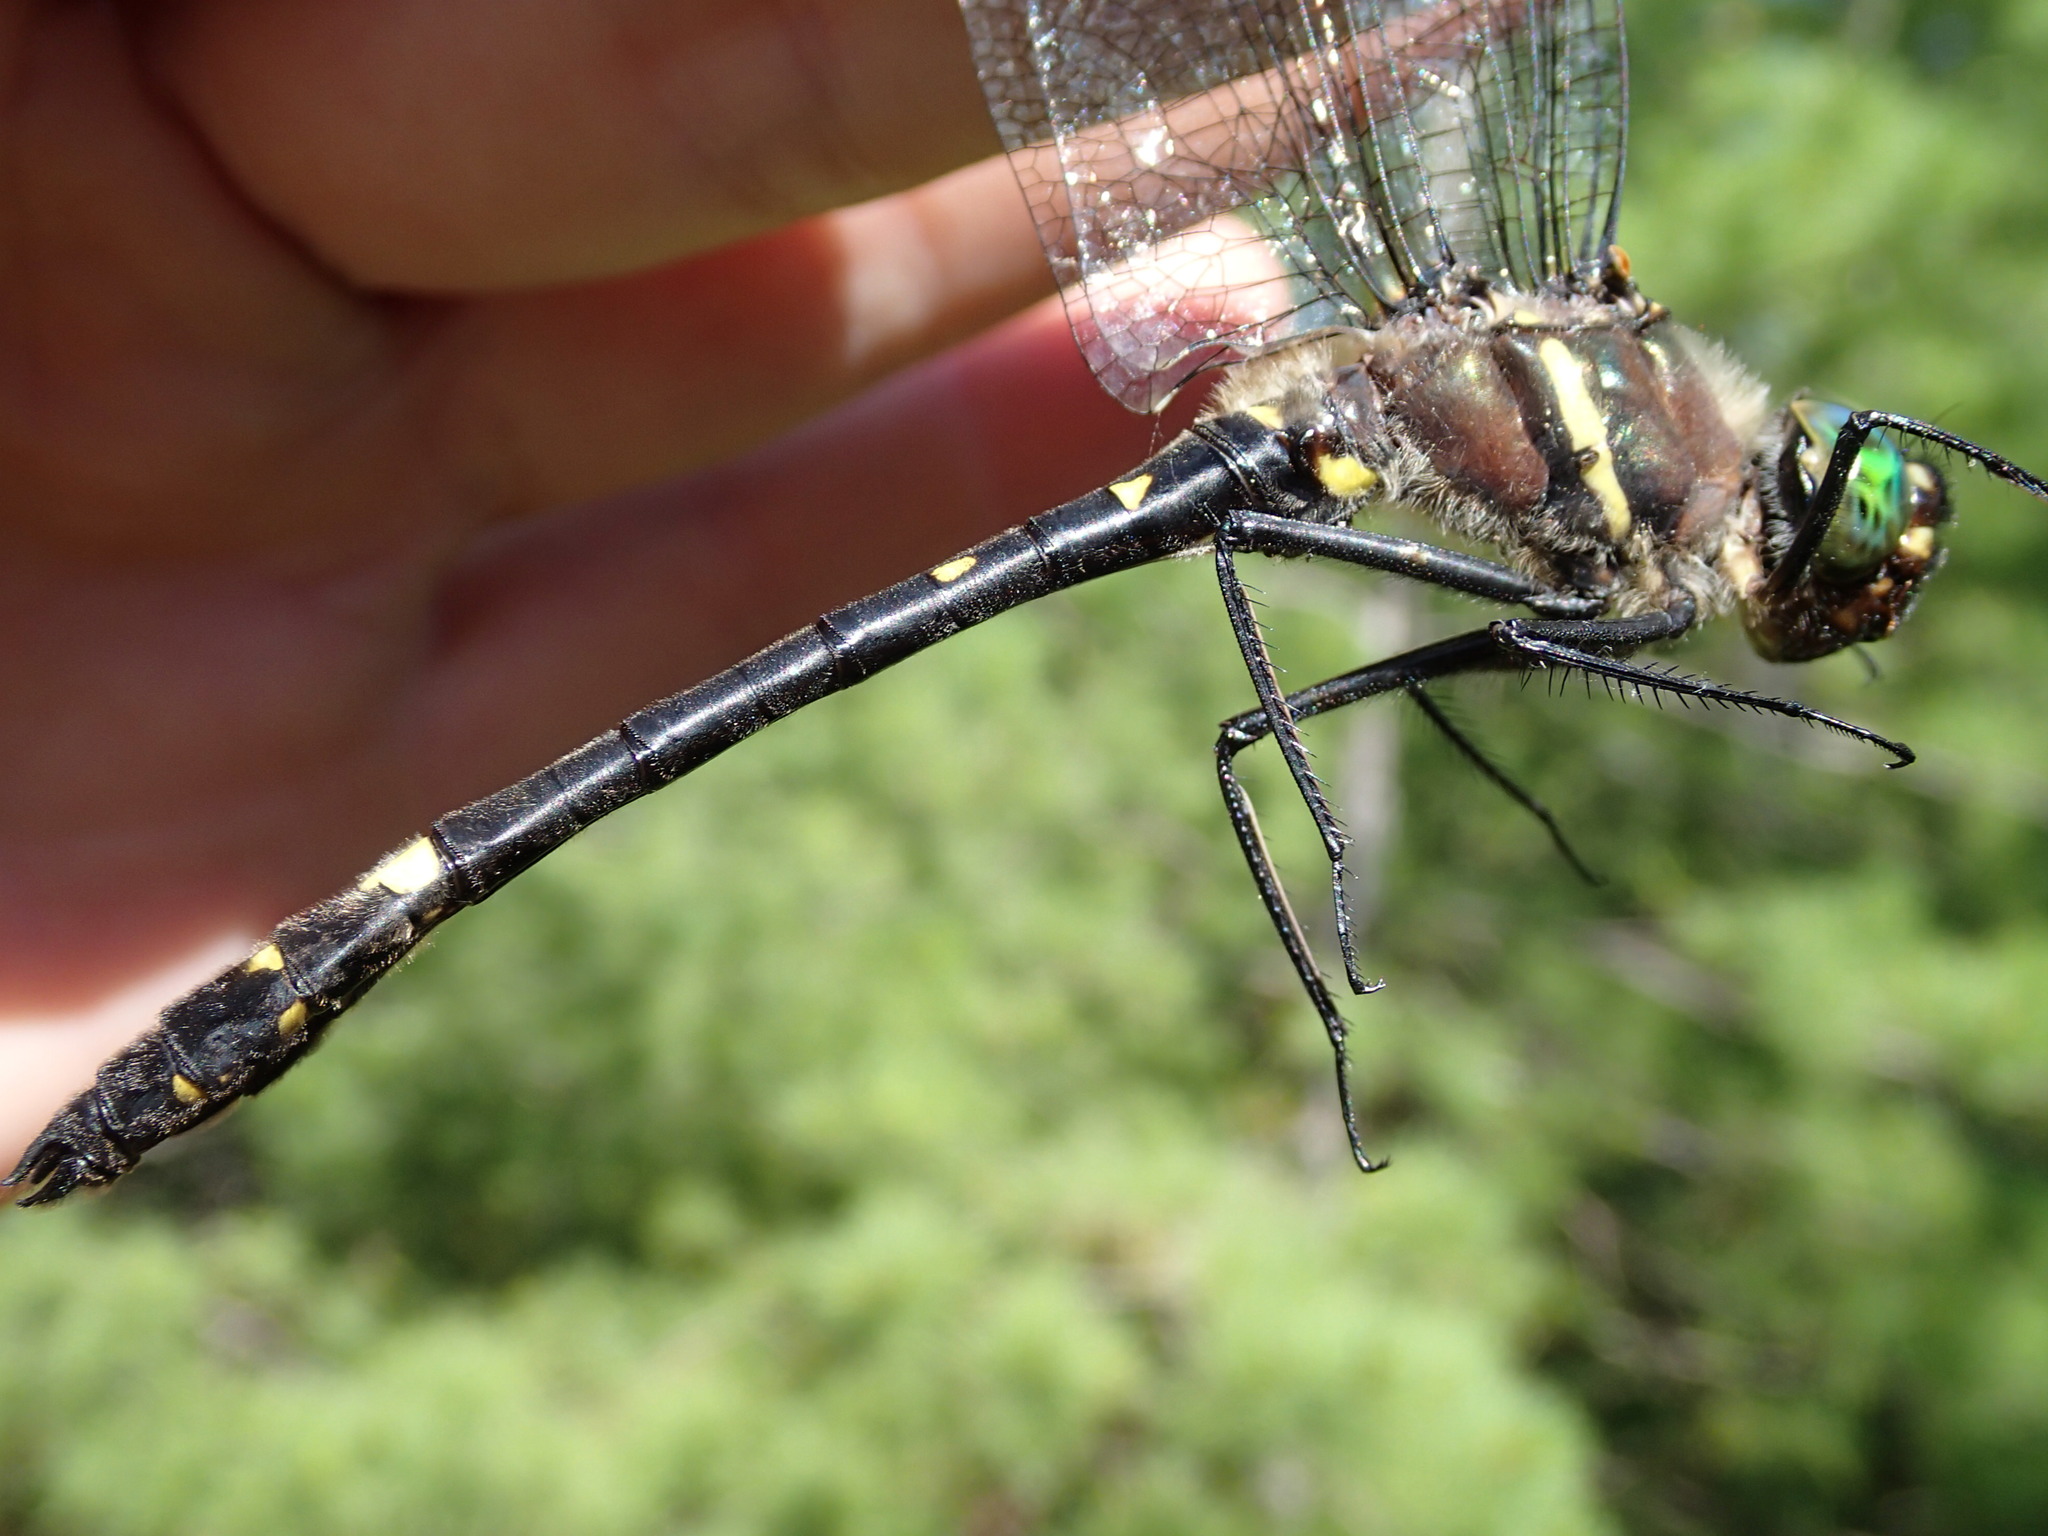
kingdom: Animalia
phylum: Arthropoda
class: Insecta
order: Odonata
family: Macromiidae
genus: Macromia
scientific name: Macromia illinoiensis
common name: Swift river cruiser
